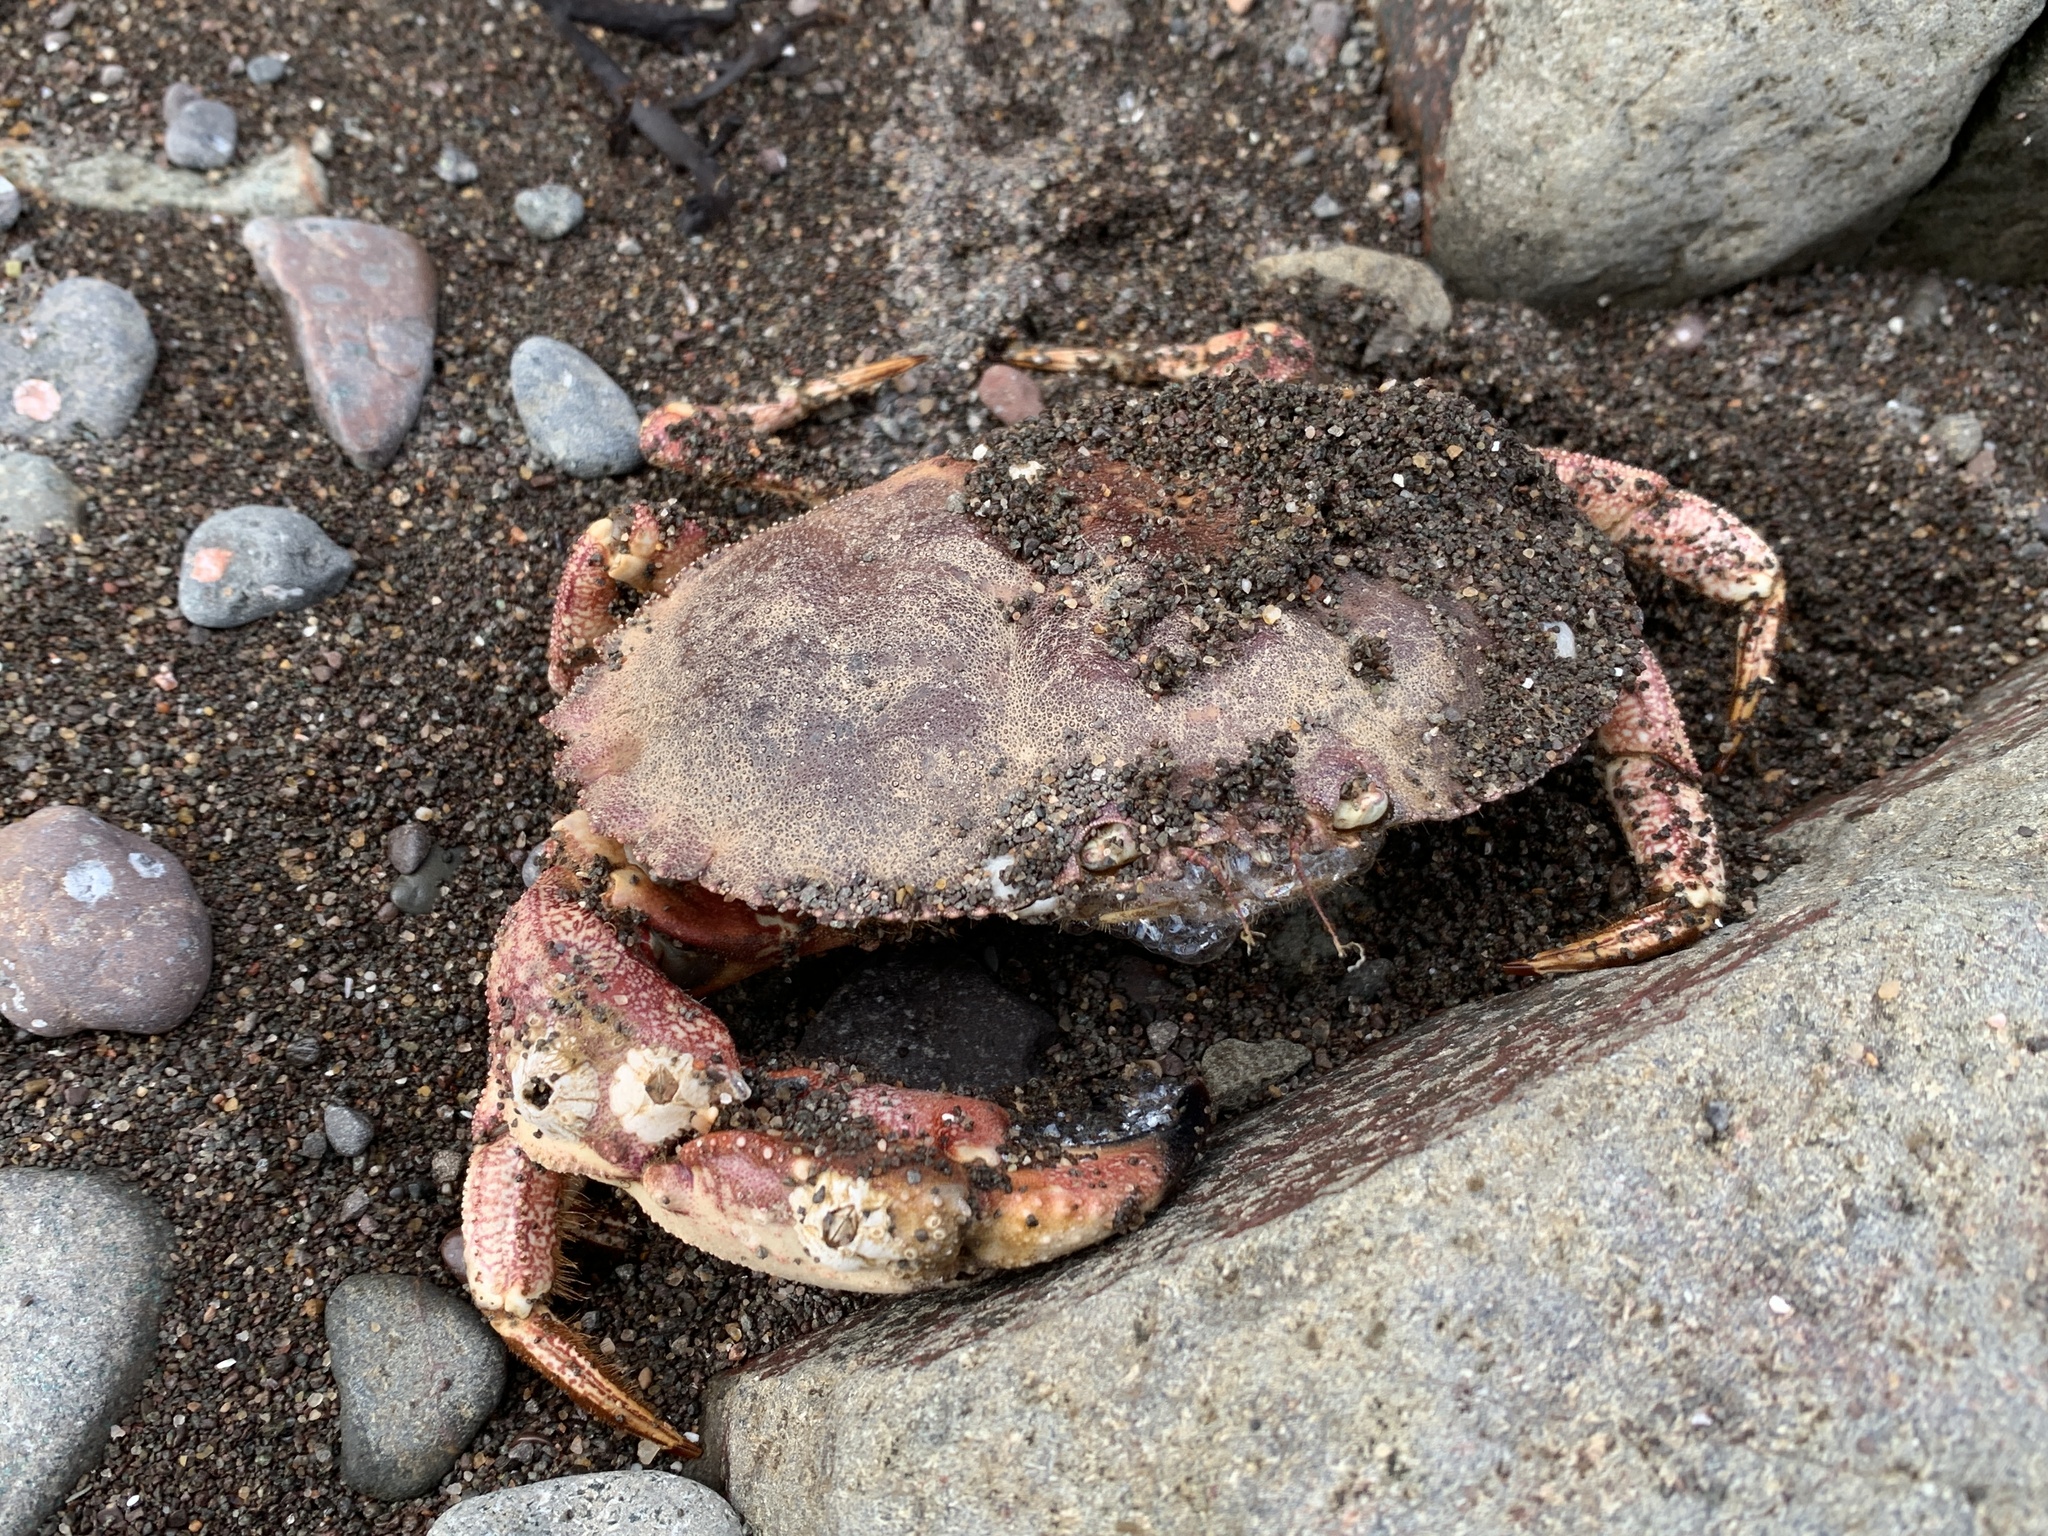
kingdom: Animalia
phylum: Arthropoda
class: Malacostraca
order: Decapoda
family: Cancridae
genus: Cancer
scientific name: Cancer borealis
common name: Jonah crab
